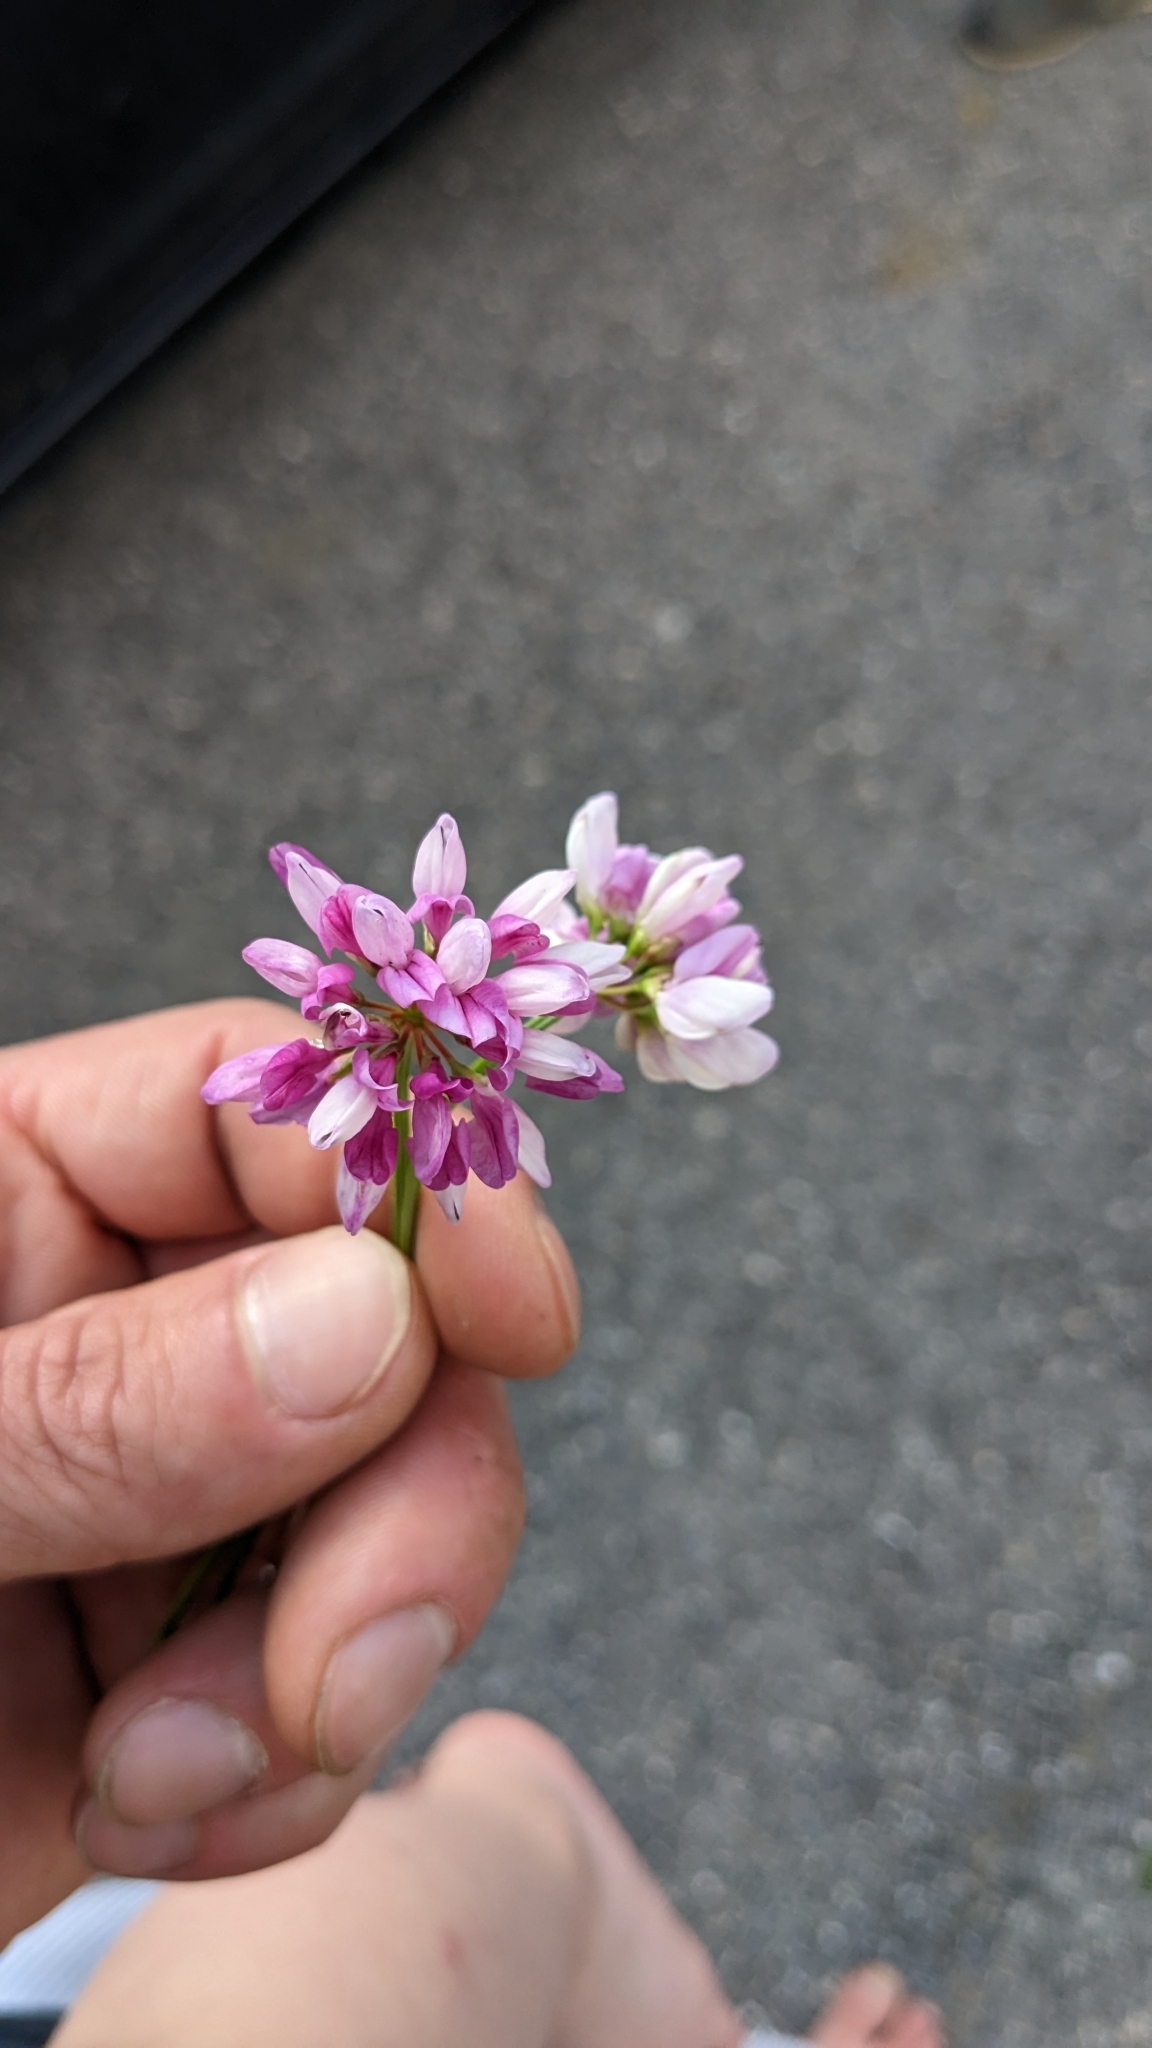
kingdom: Plantae
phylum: Tracheophyta
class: Magnoliopsida
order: Fabales
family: Fabaceae
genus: Coronilla
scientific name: Coronilla varia
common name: Crownvetch
